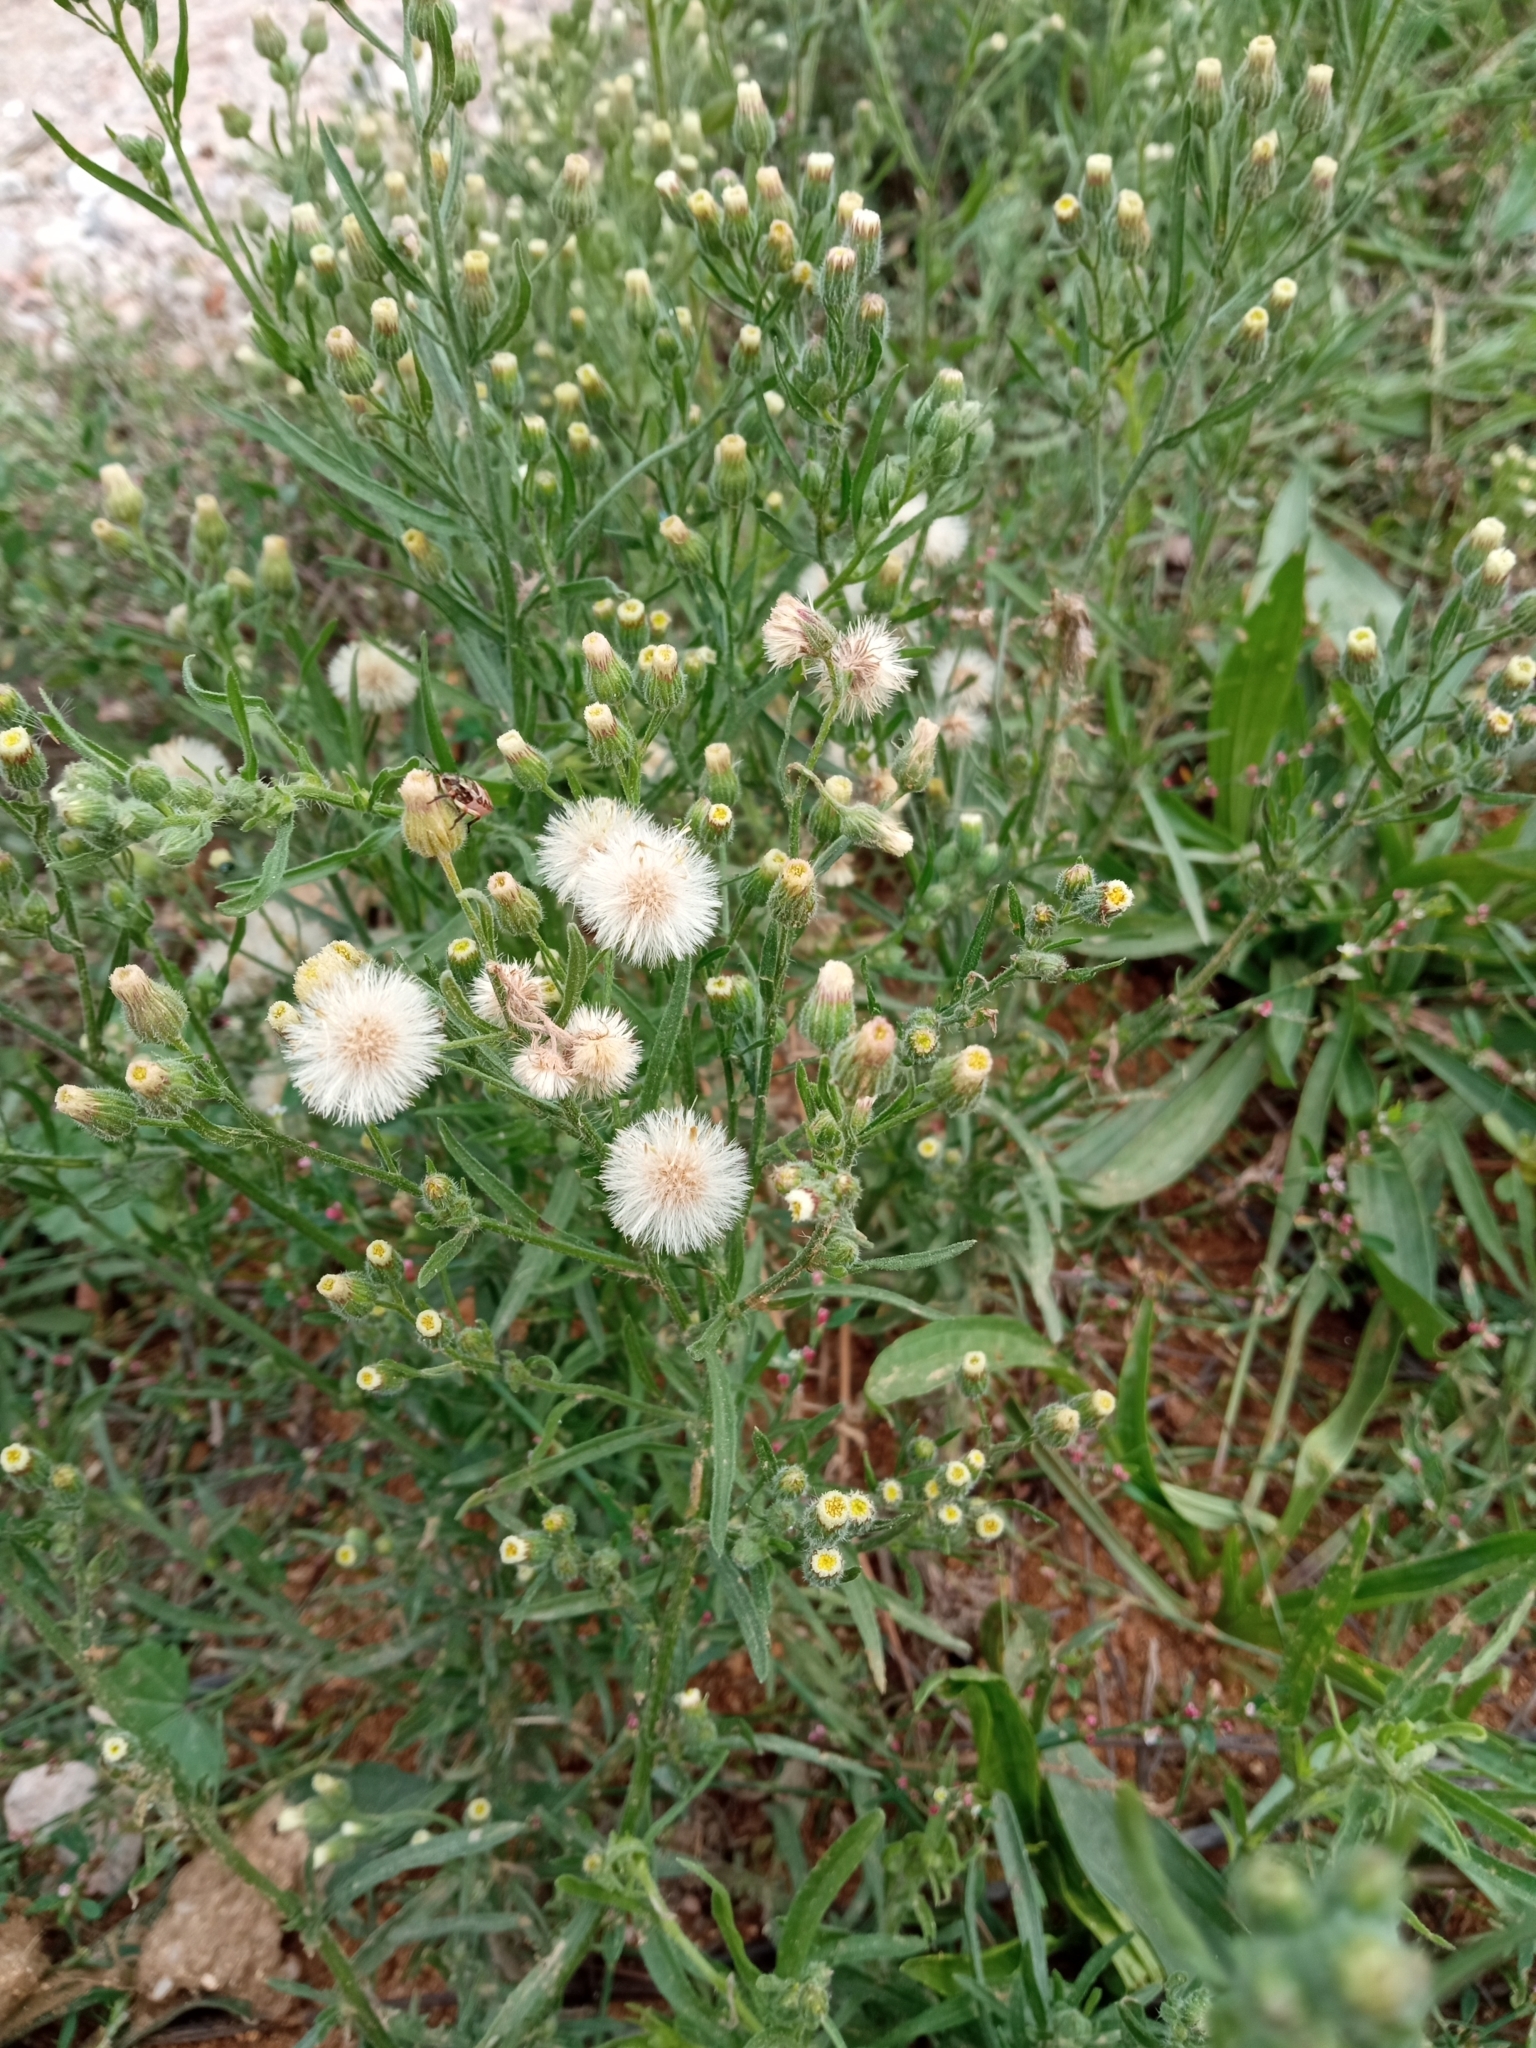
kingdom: Plantae
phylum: Tracheophyta
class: Magnoliopsida
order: Asterales
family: Asteraceae
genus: Erigeron
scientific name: Erigeron bonariensis
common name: Argentine fleabane
